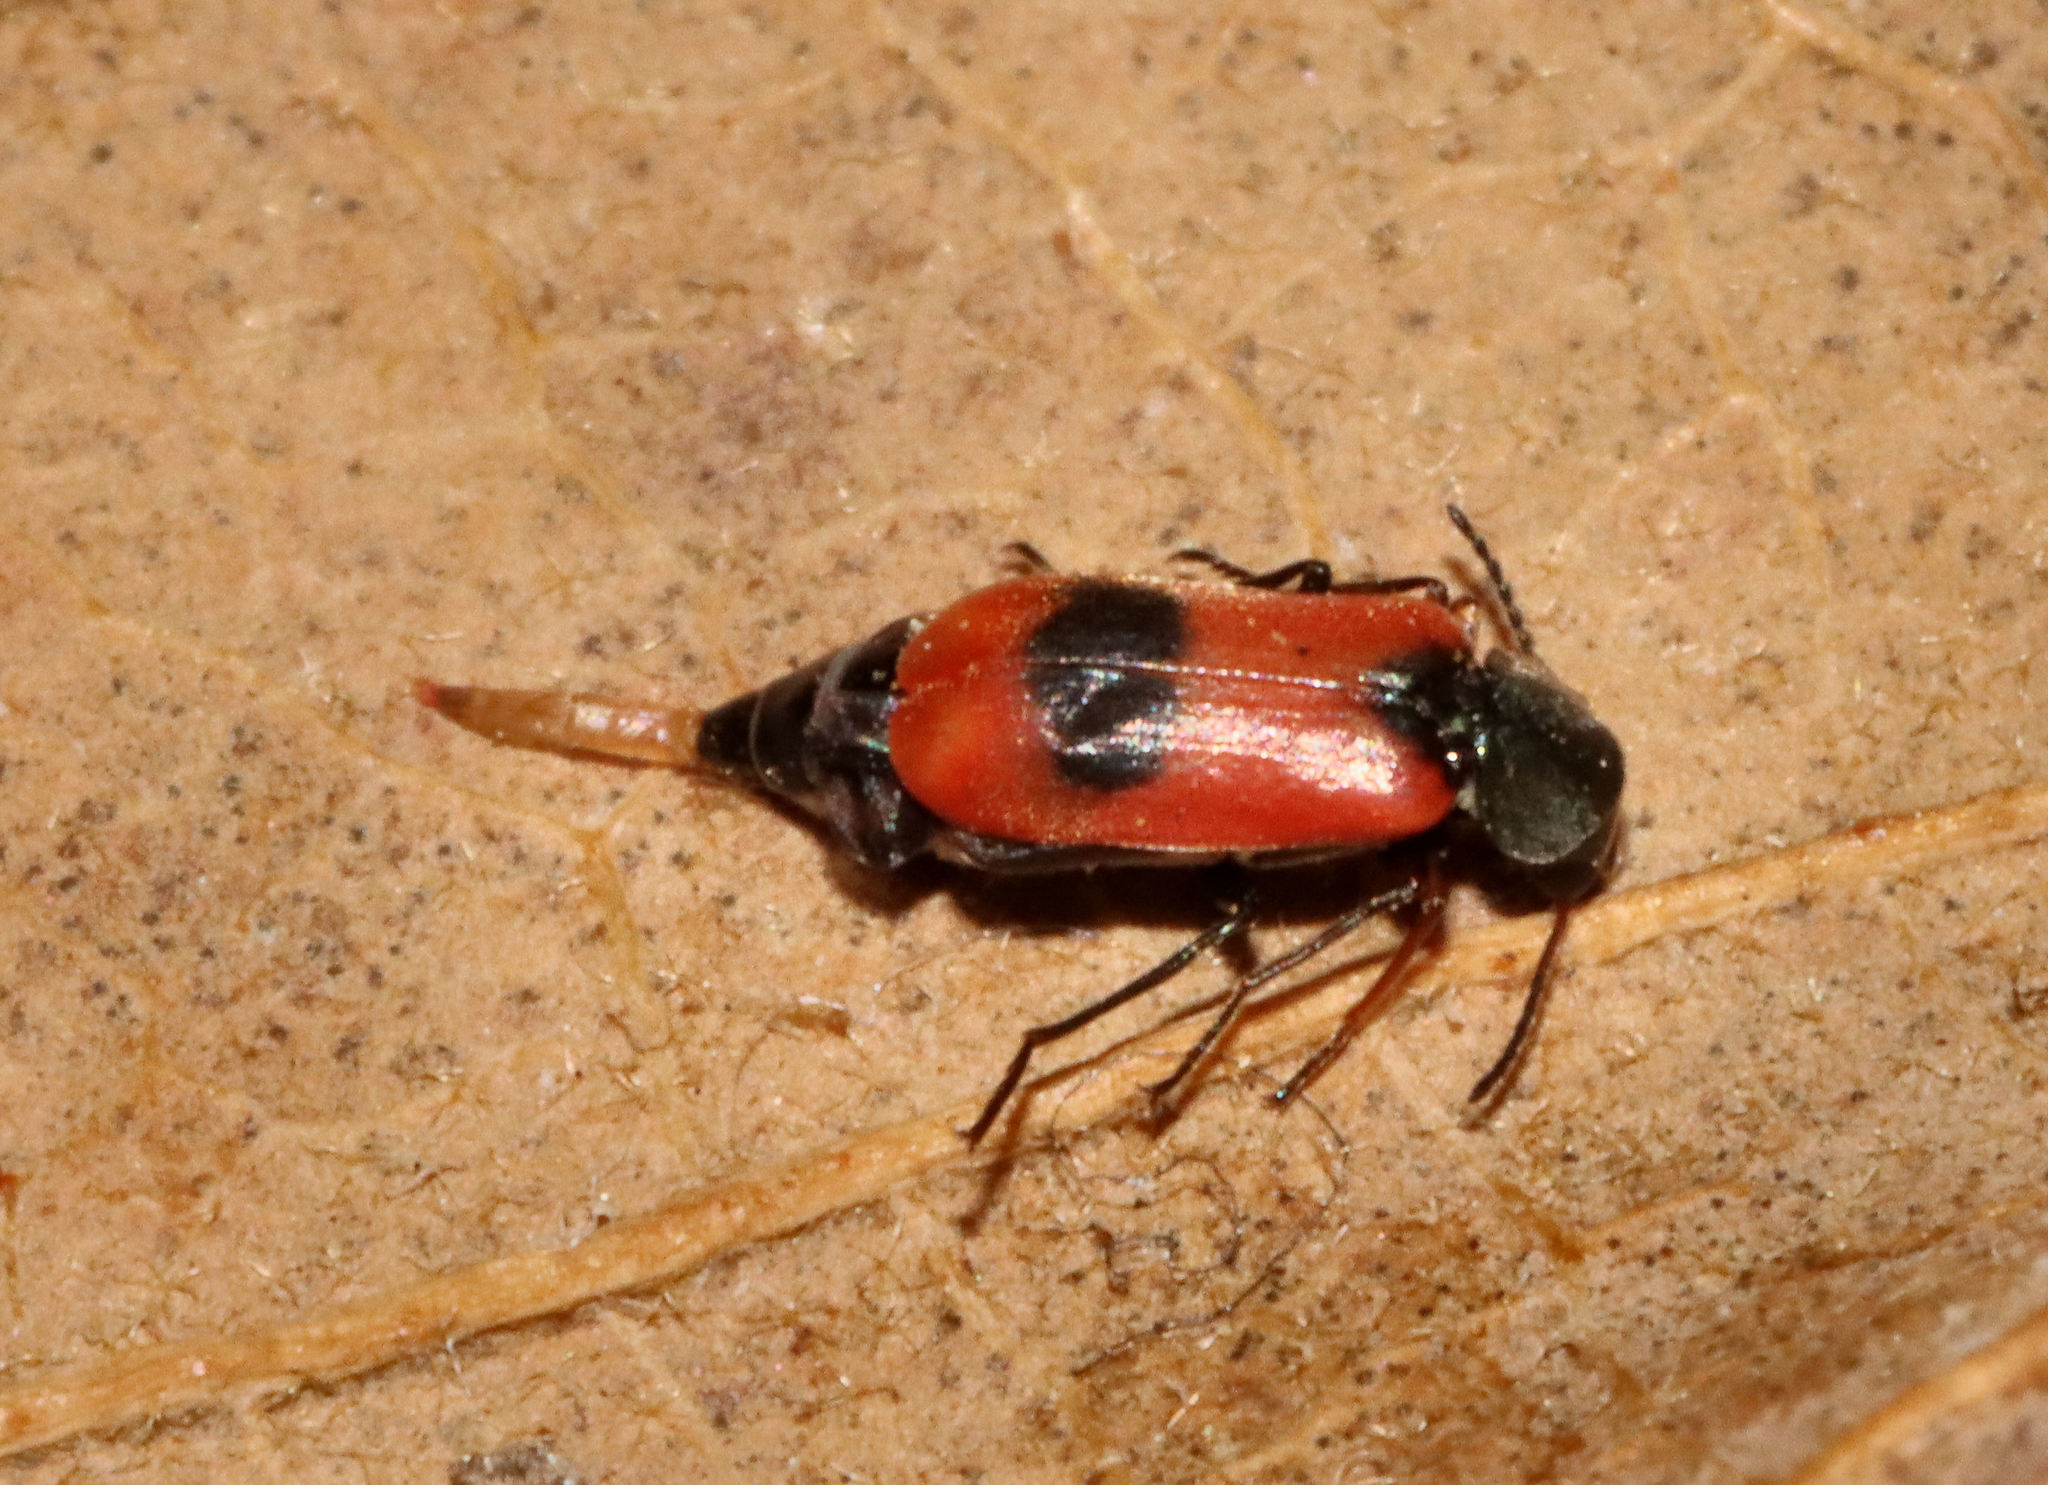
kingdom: Animalia
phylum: Arthropoda
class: Insecta
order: Coleoptera
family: Melyridae
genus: Anthocomus
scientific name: Anthocomus equestris
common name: Black-banded soft-winged flower beetle
